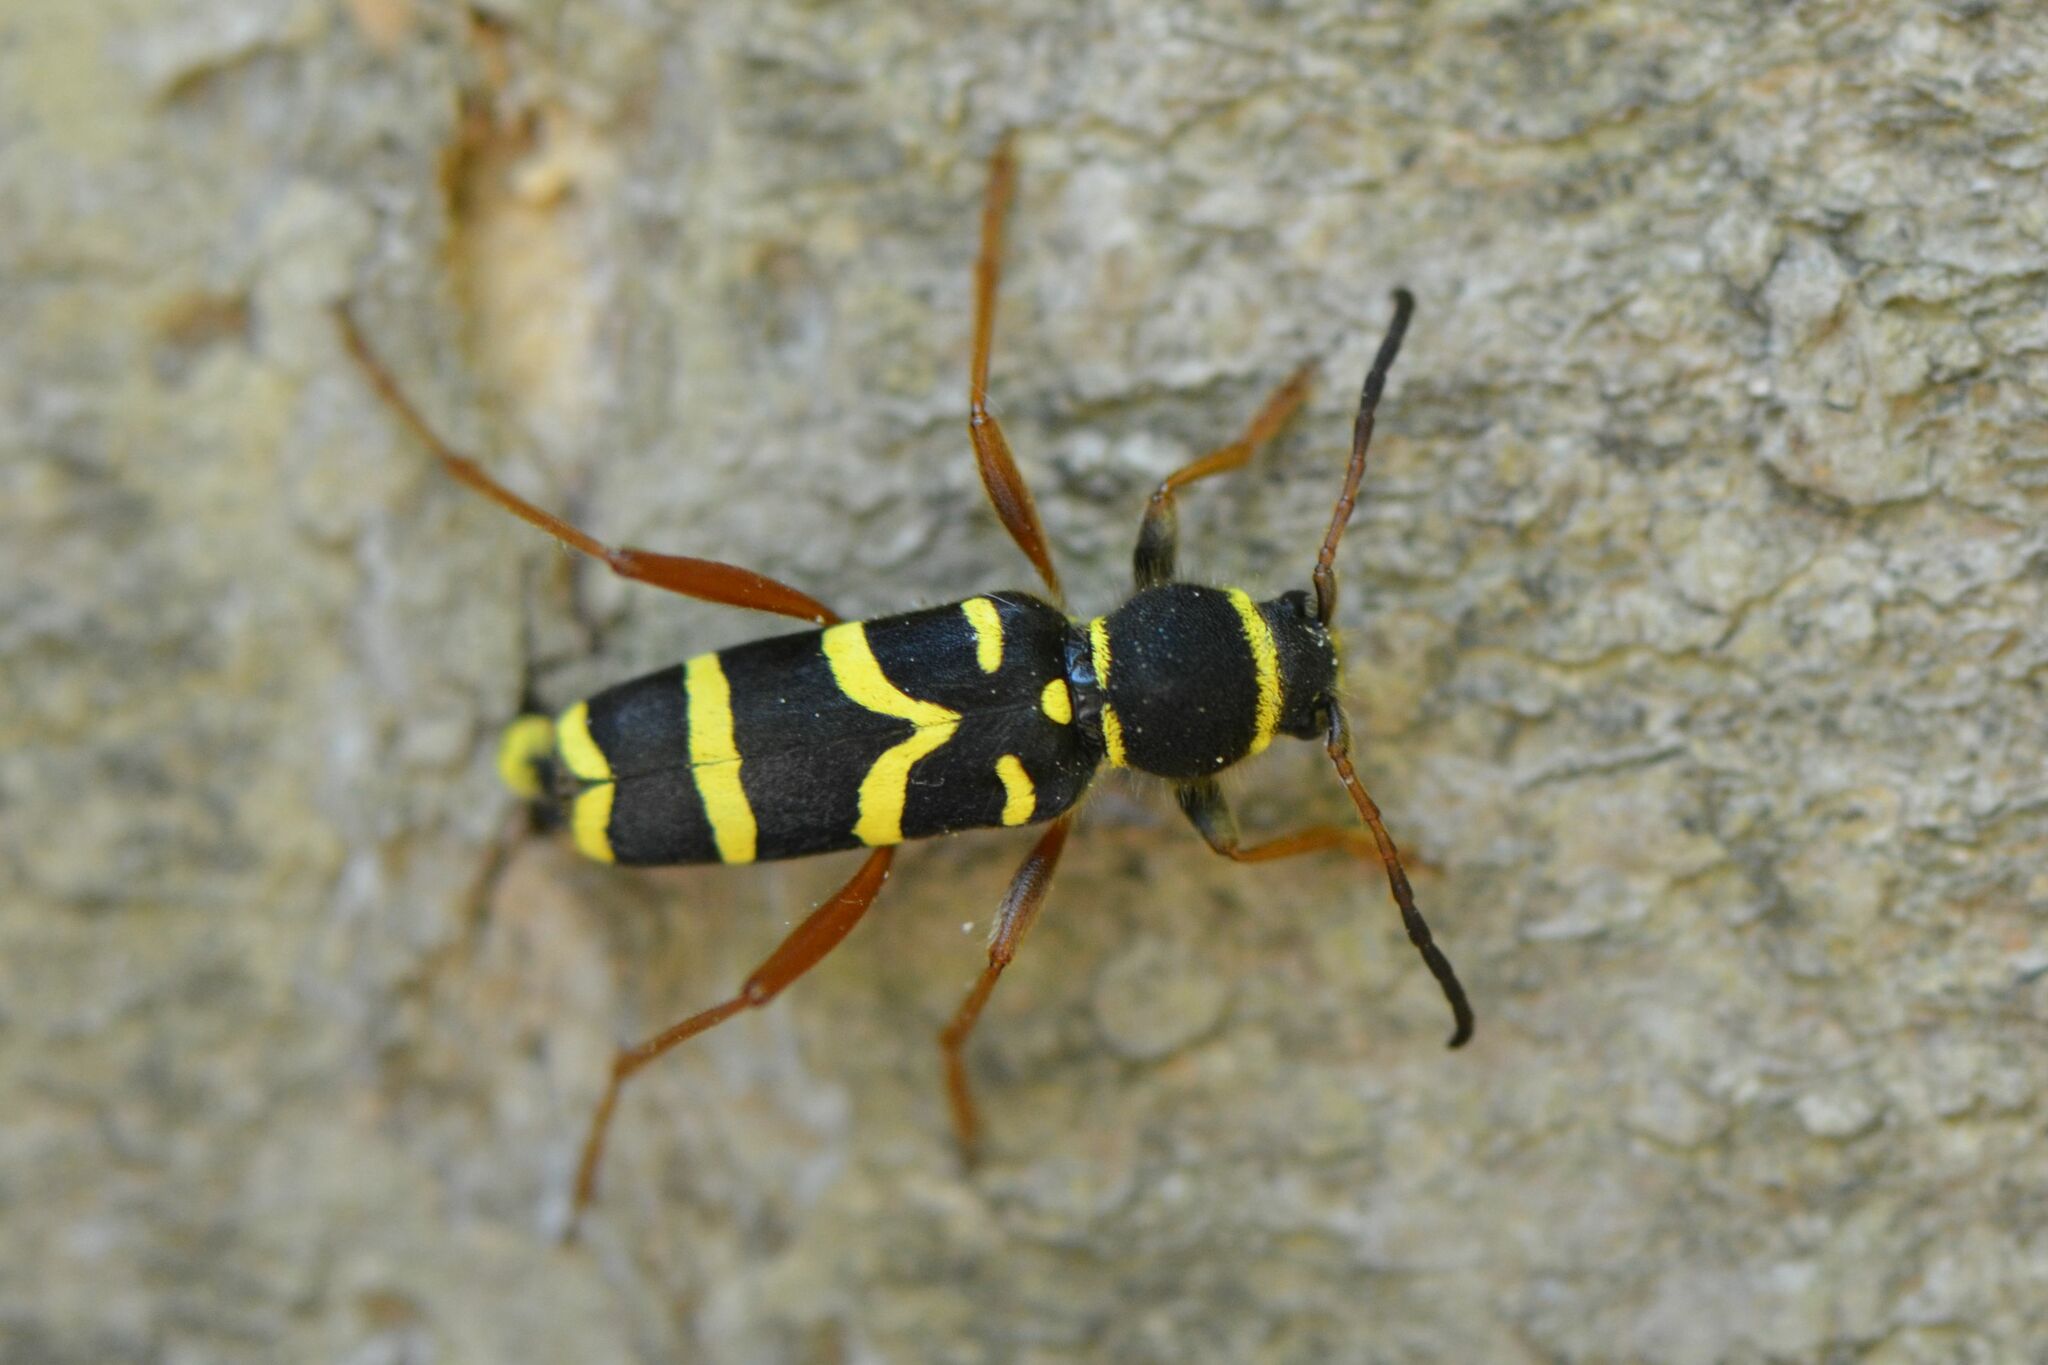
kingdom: Animalia
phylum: Arthropoda
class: Insecta
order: Coleoptera
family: Cerambycidae
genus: Clytus
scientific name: Clytus arietis
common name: Wasp beetle
